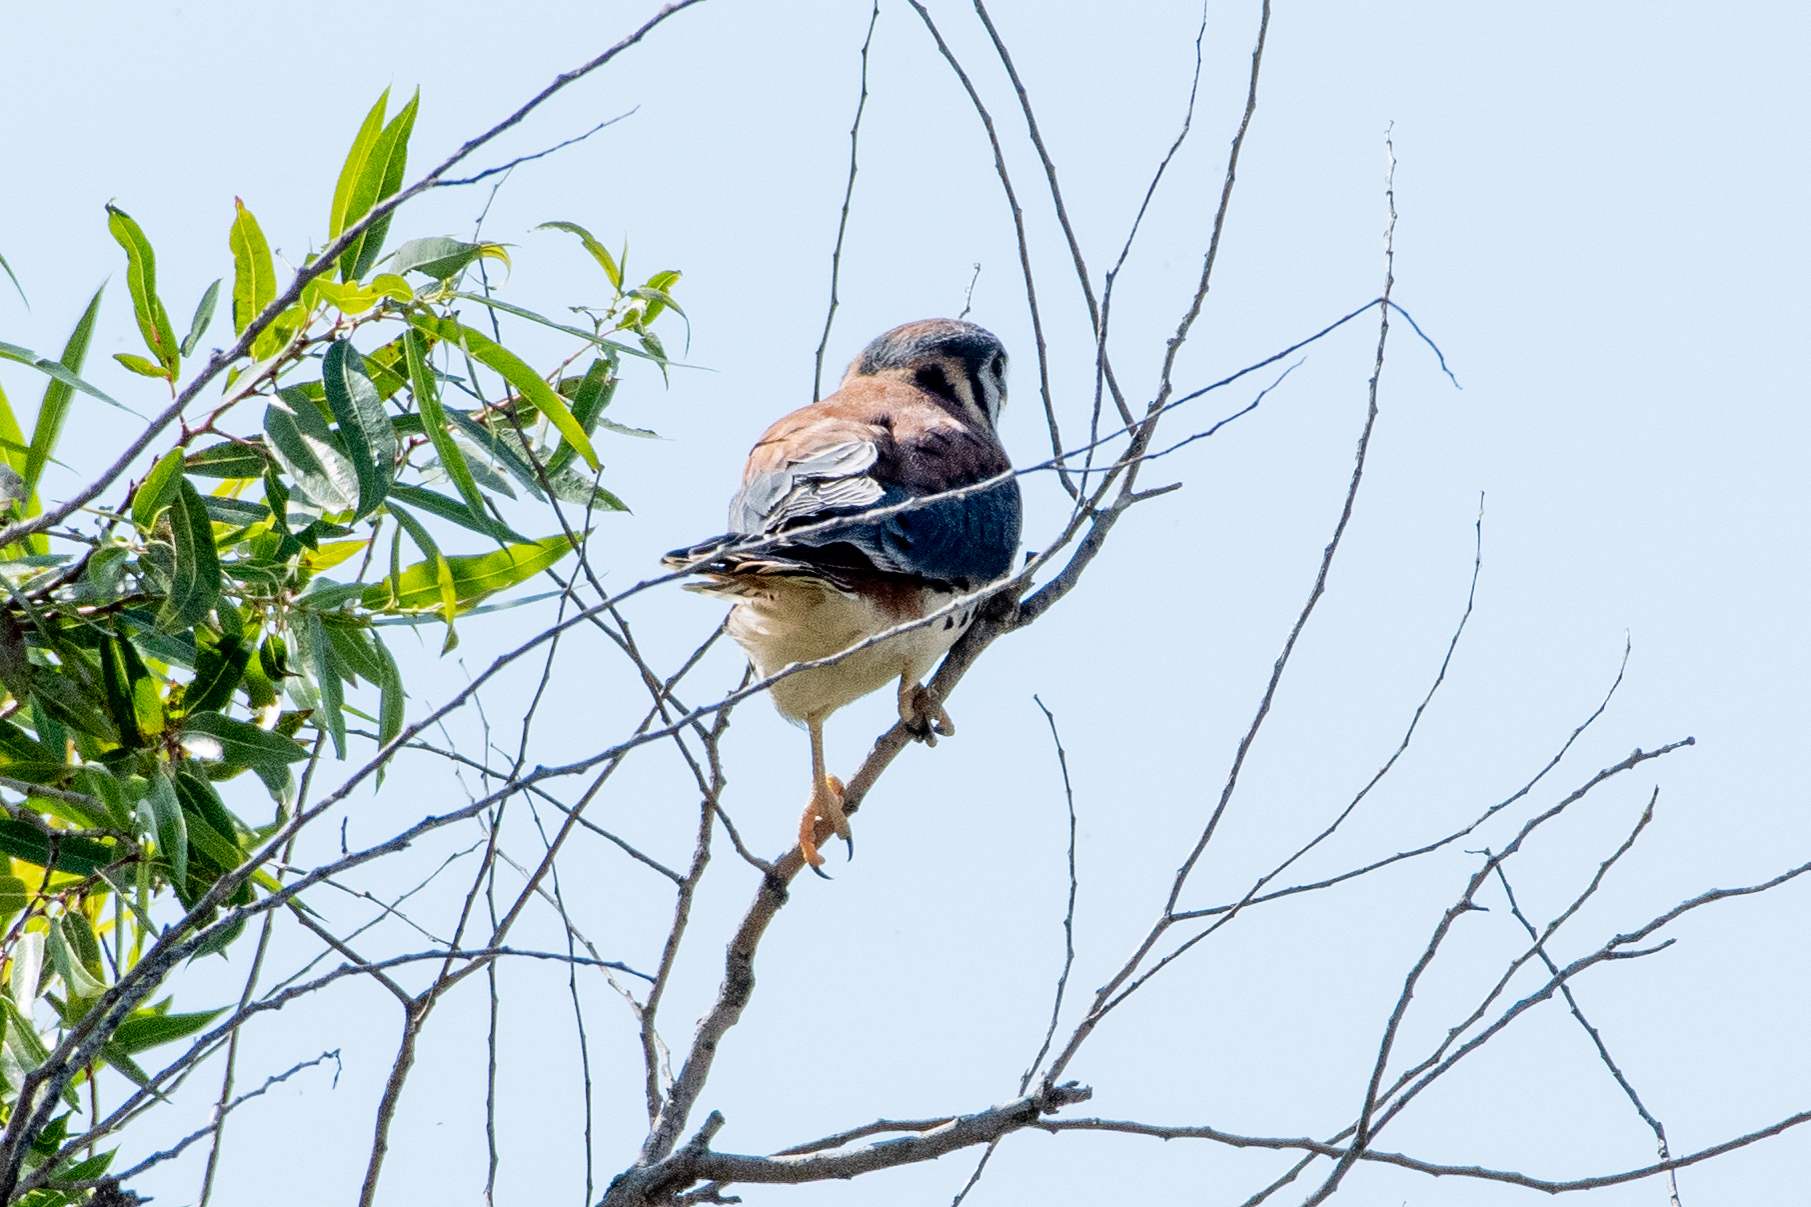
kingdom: Animalia
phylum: Chordata
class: Aves
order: Falconiformes
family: Falconidae
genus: Falco
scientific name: Falco sparverius
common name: American kestrel
